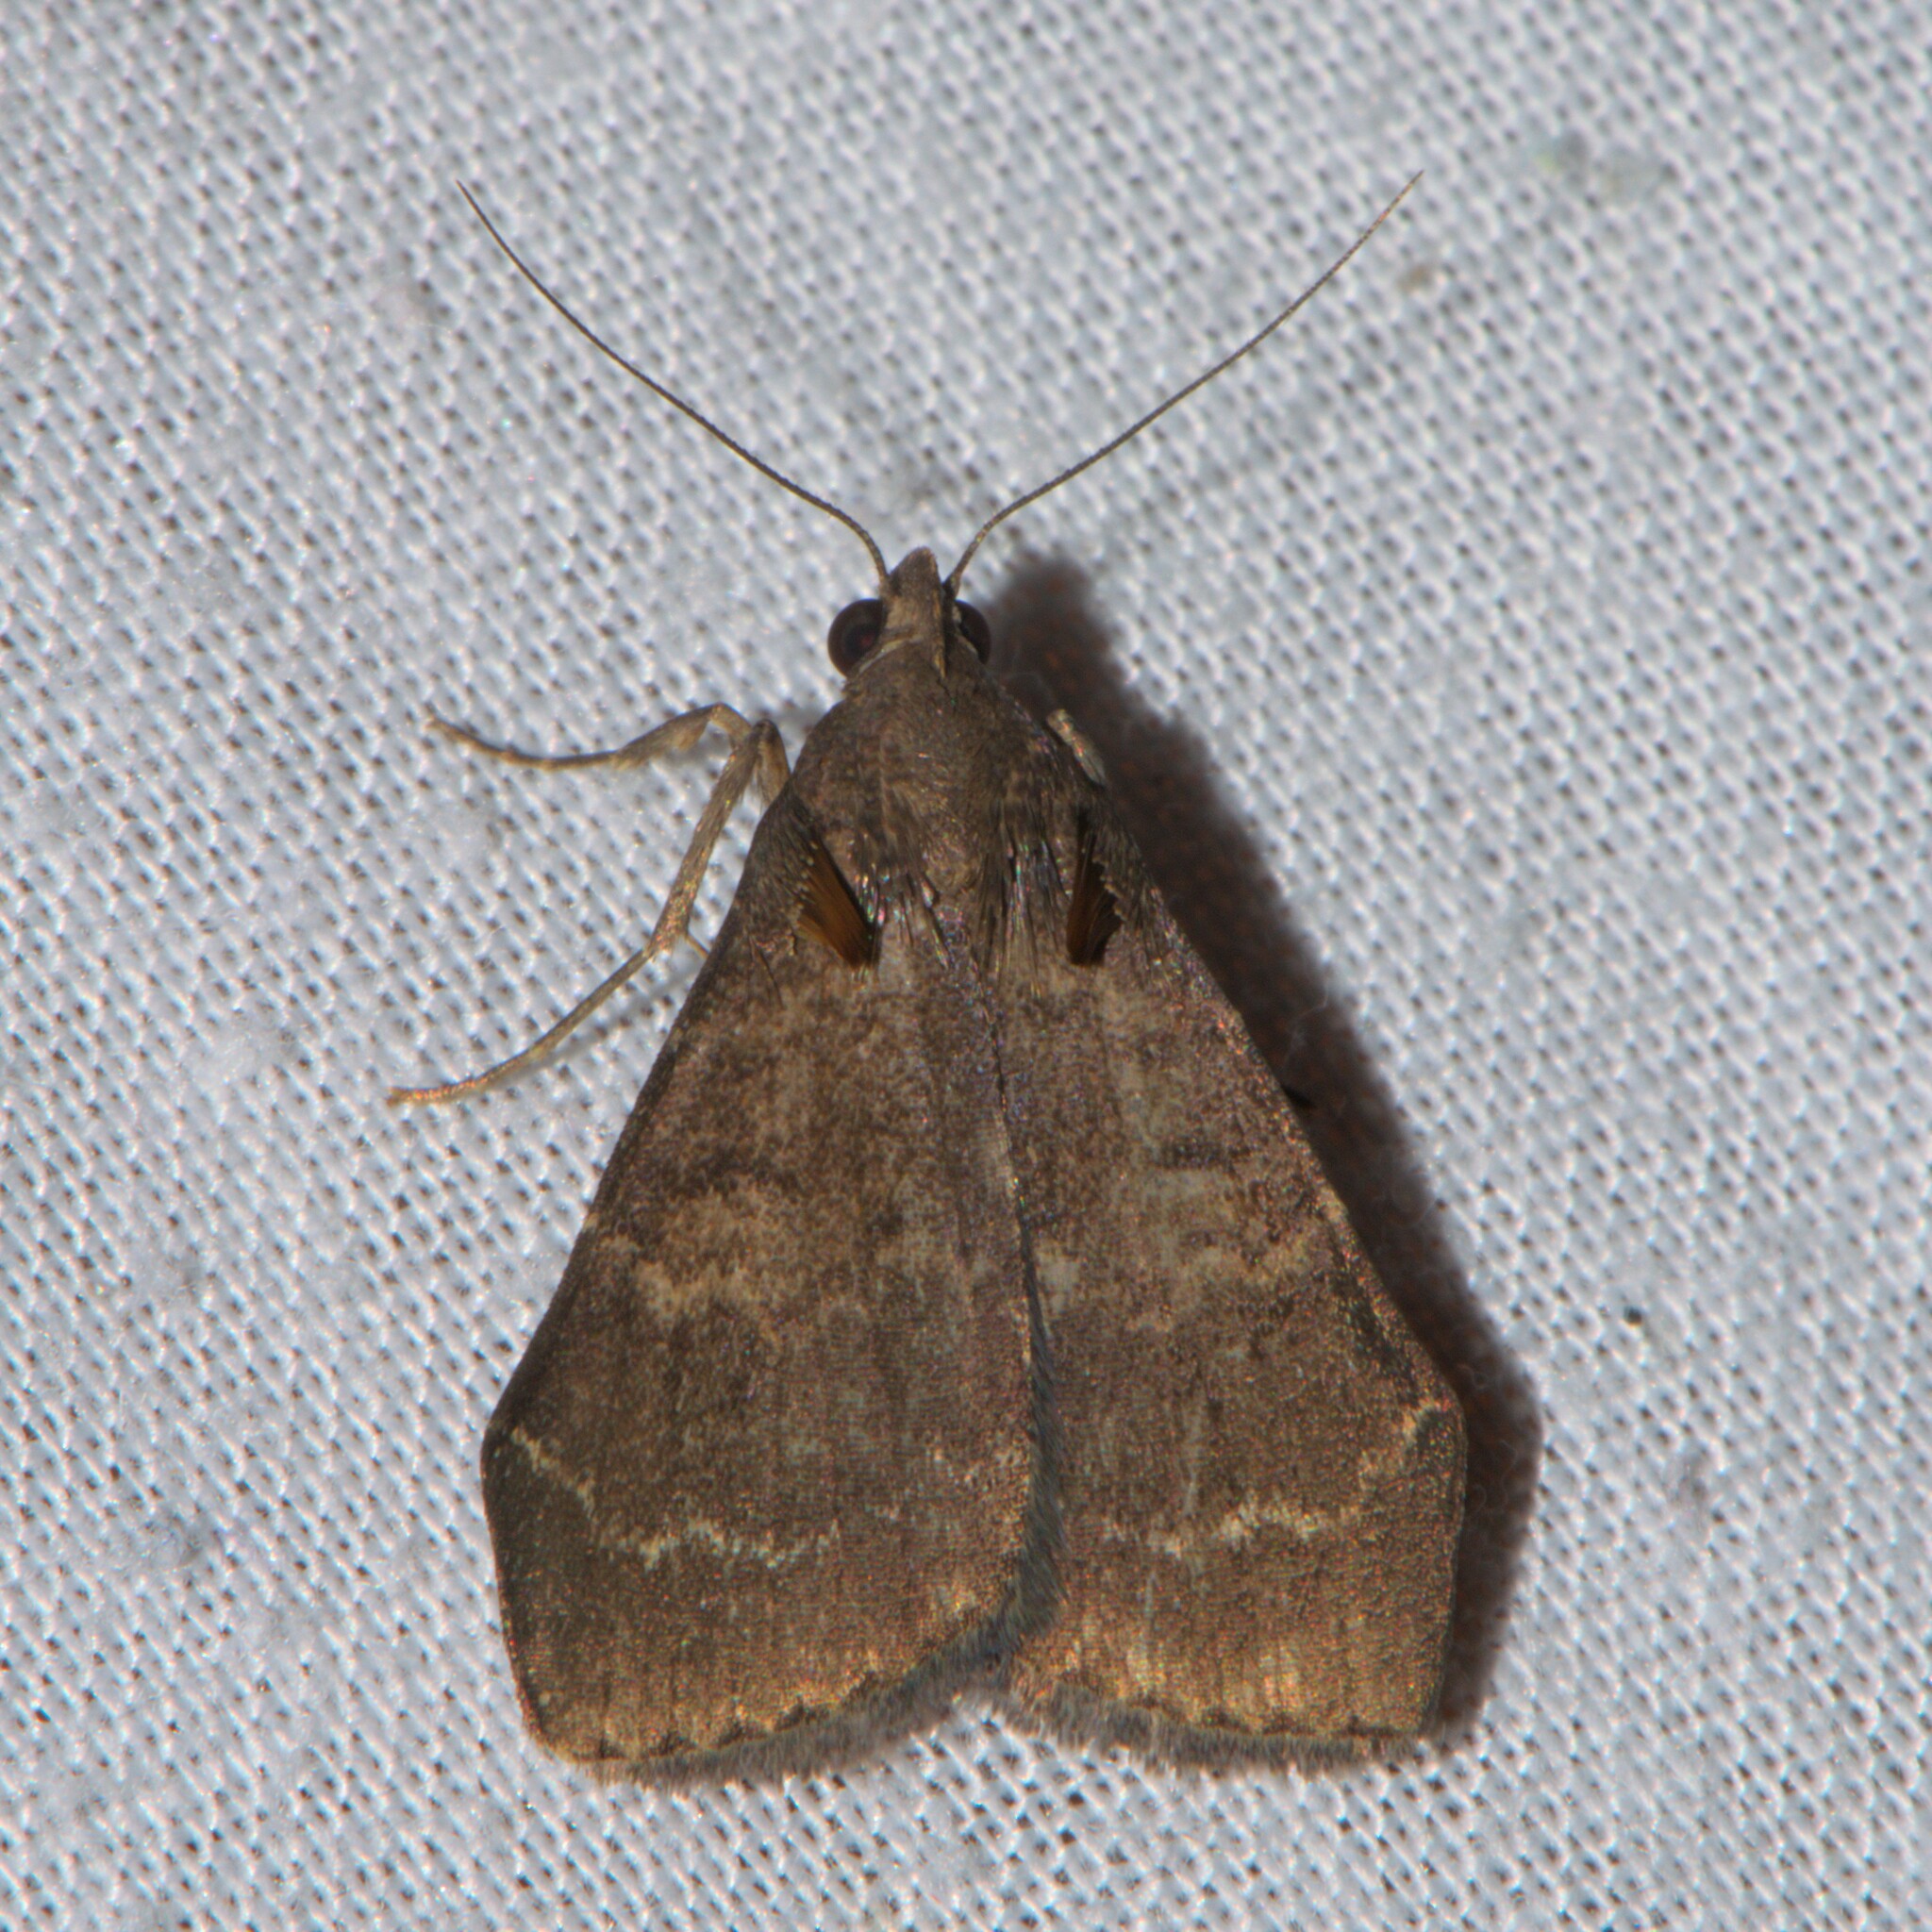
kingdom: Animalia
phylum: Arthropoda
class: Insecta
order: Lepidoptera
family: Erebidae
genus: Hydrillodes
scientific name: Hydrillodes truncata
